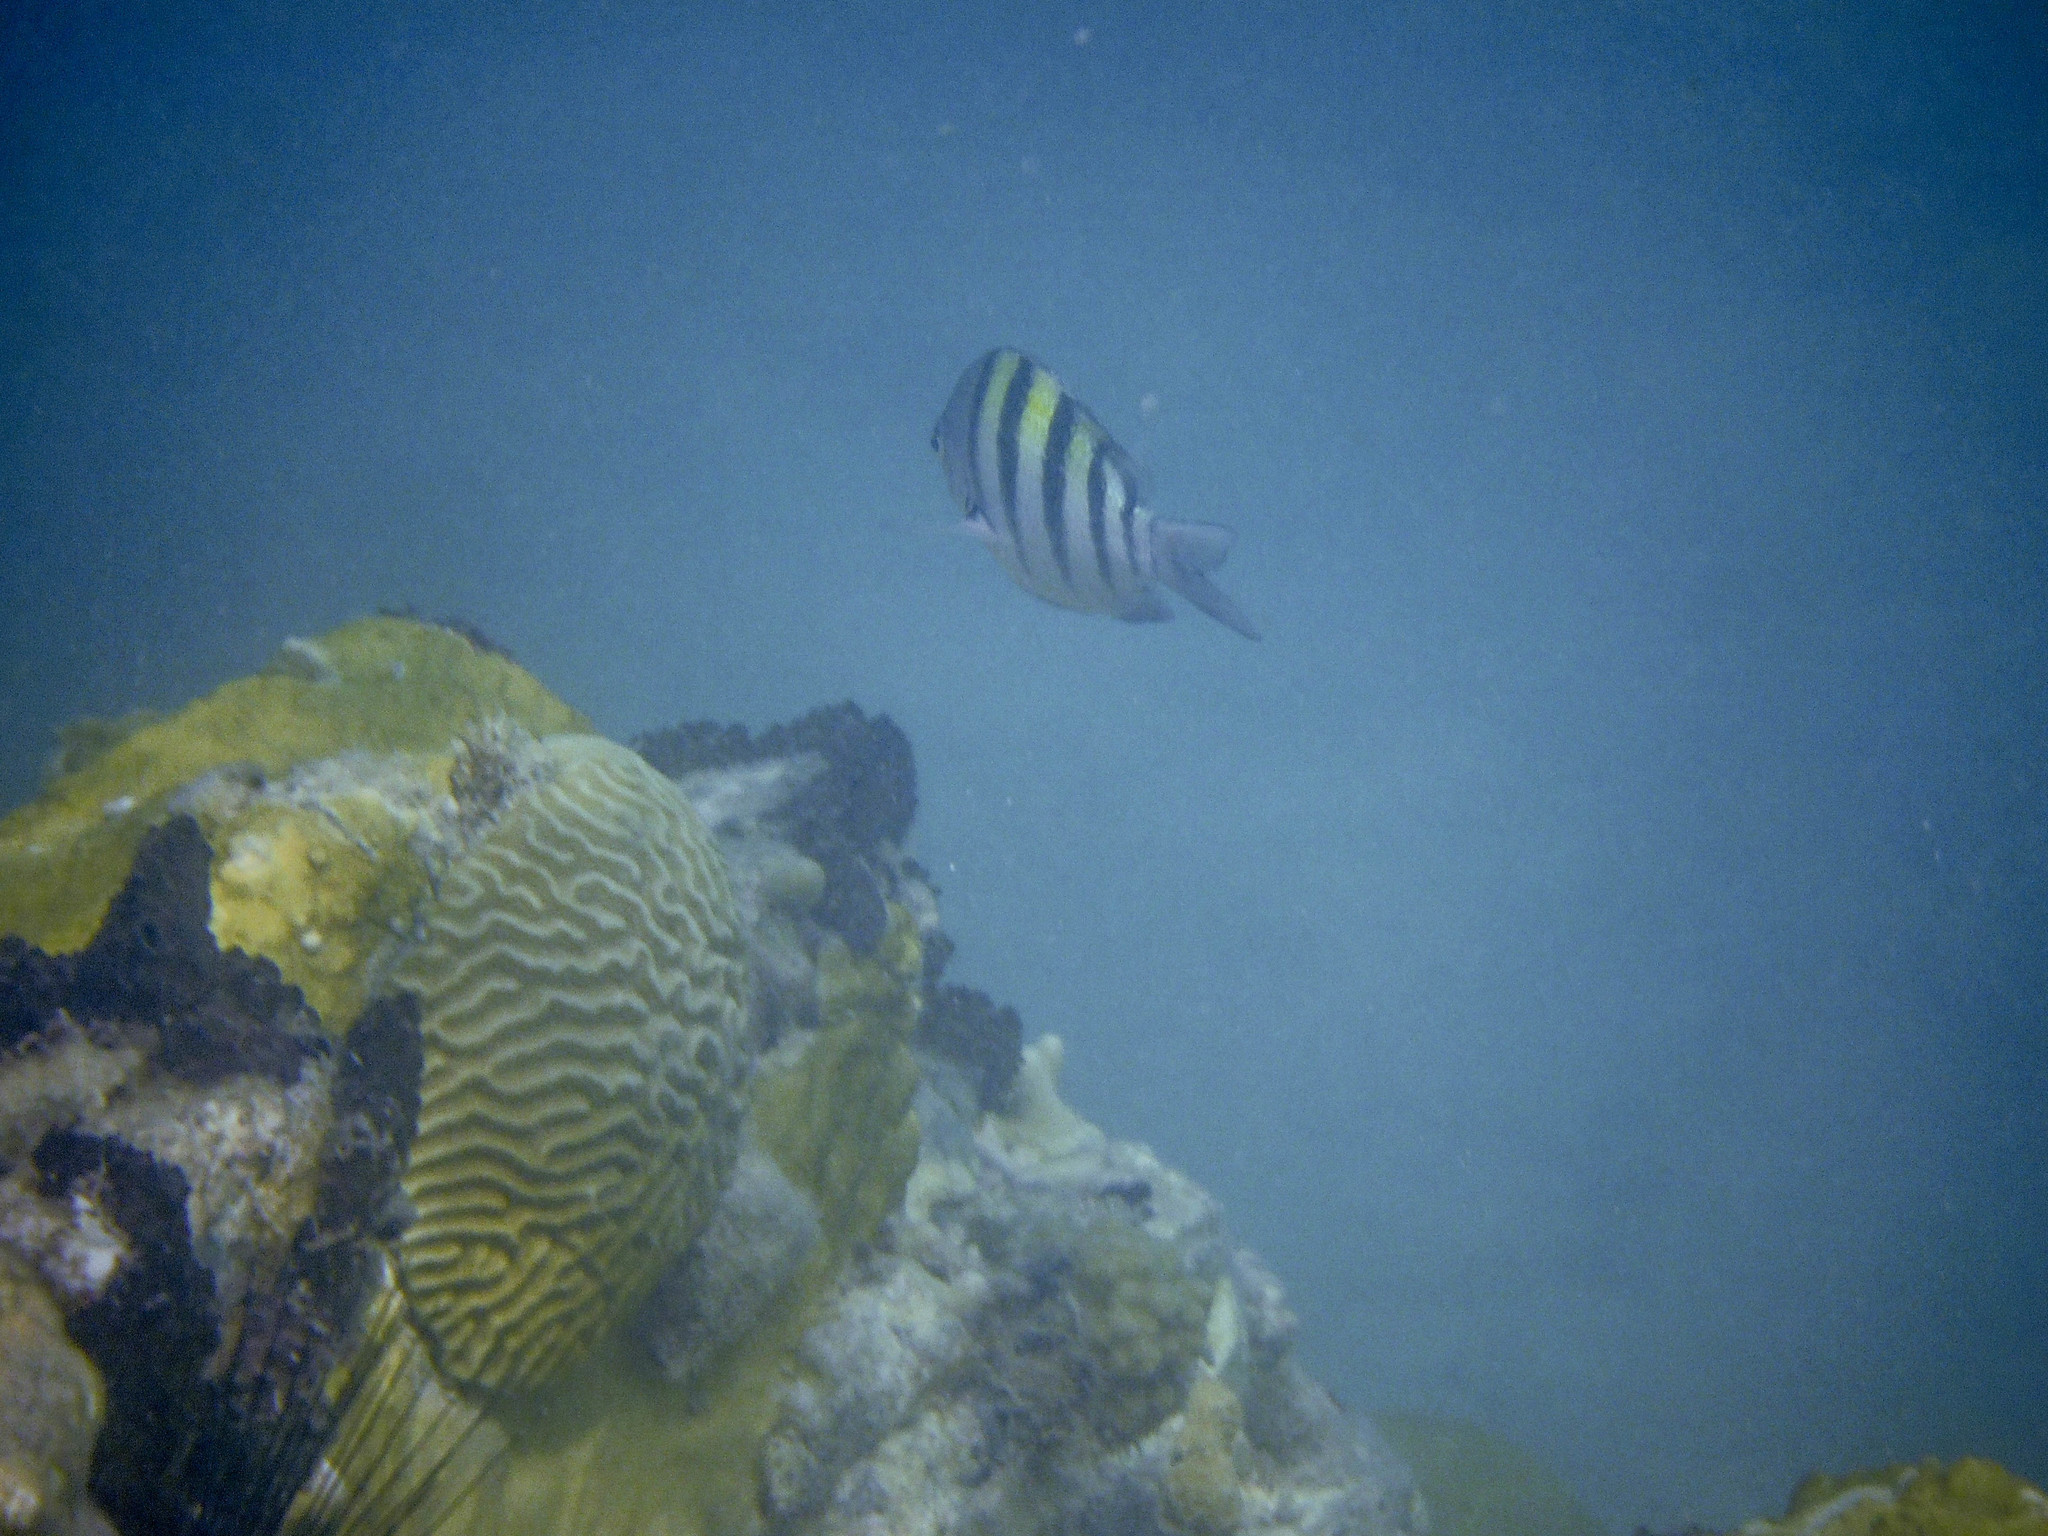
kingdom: Animalia
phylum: Cnidaria
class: Anthozoa
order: Scleractinia
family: Faviidae
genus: Pseudodiploria
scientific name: Pseudodiploria strigosa
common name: Symmetrical brain coral
